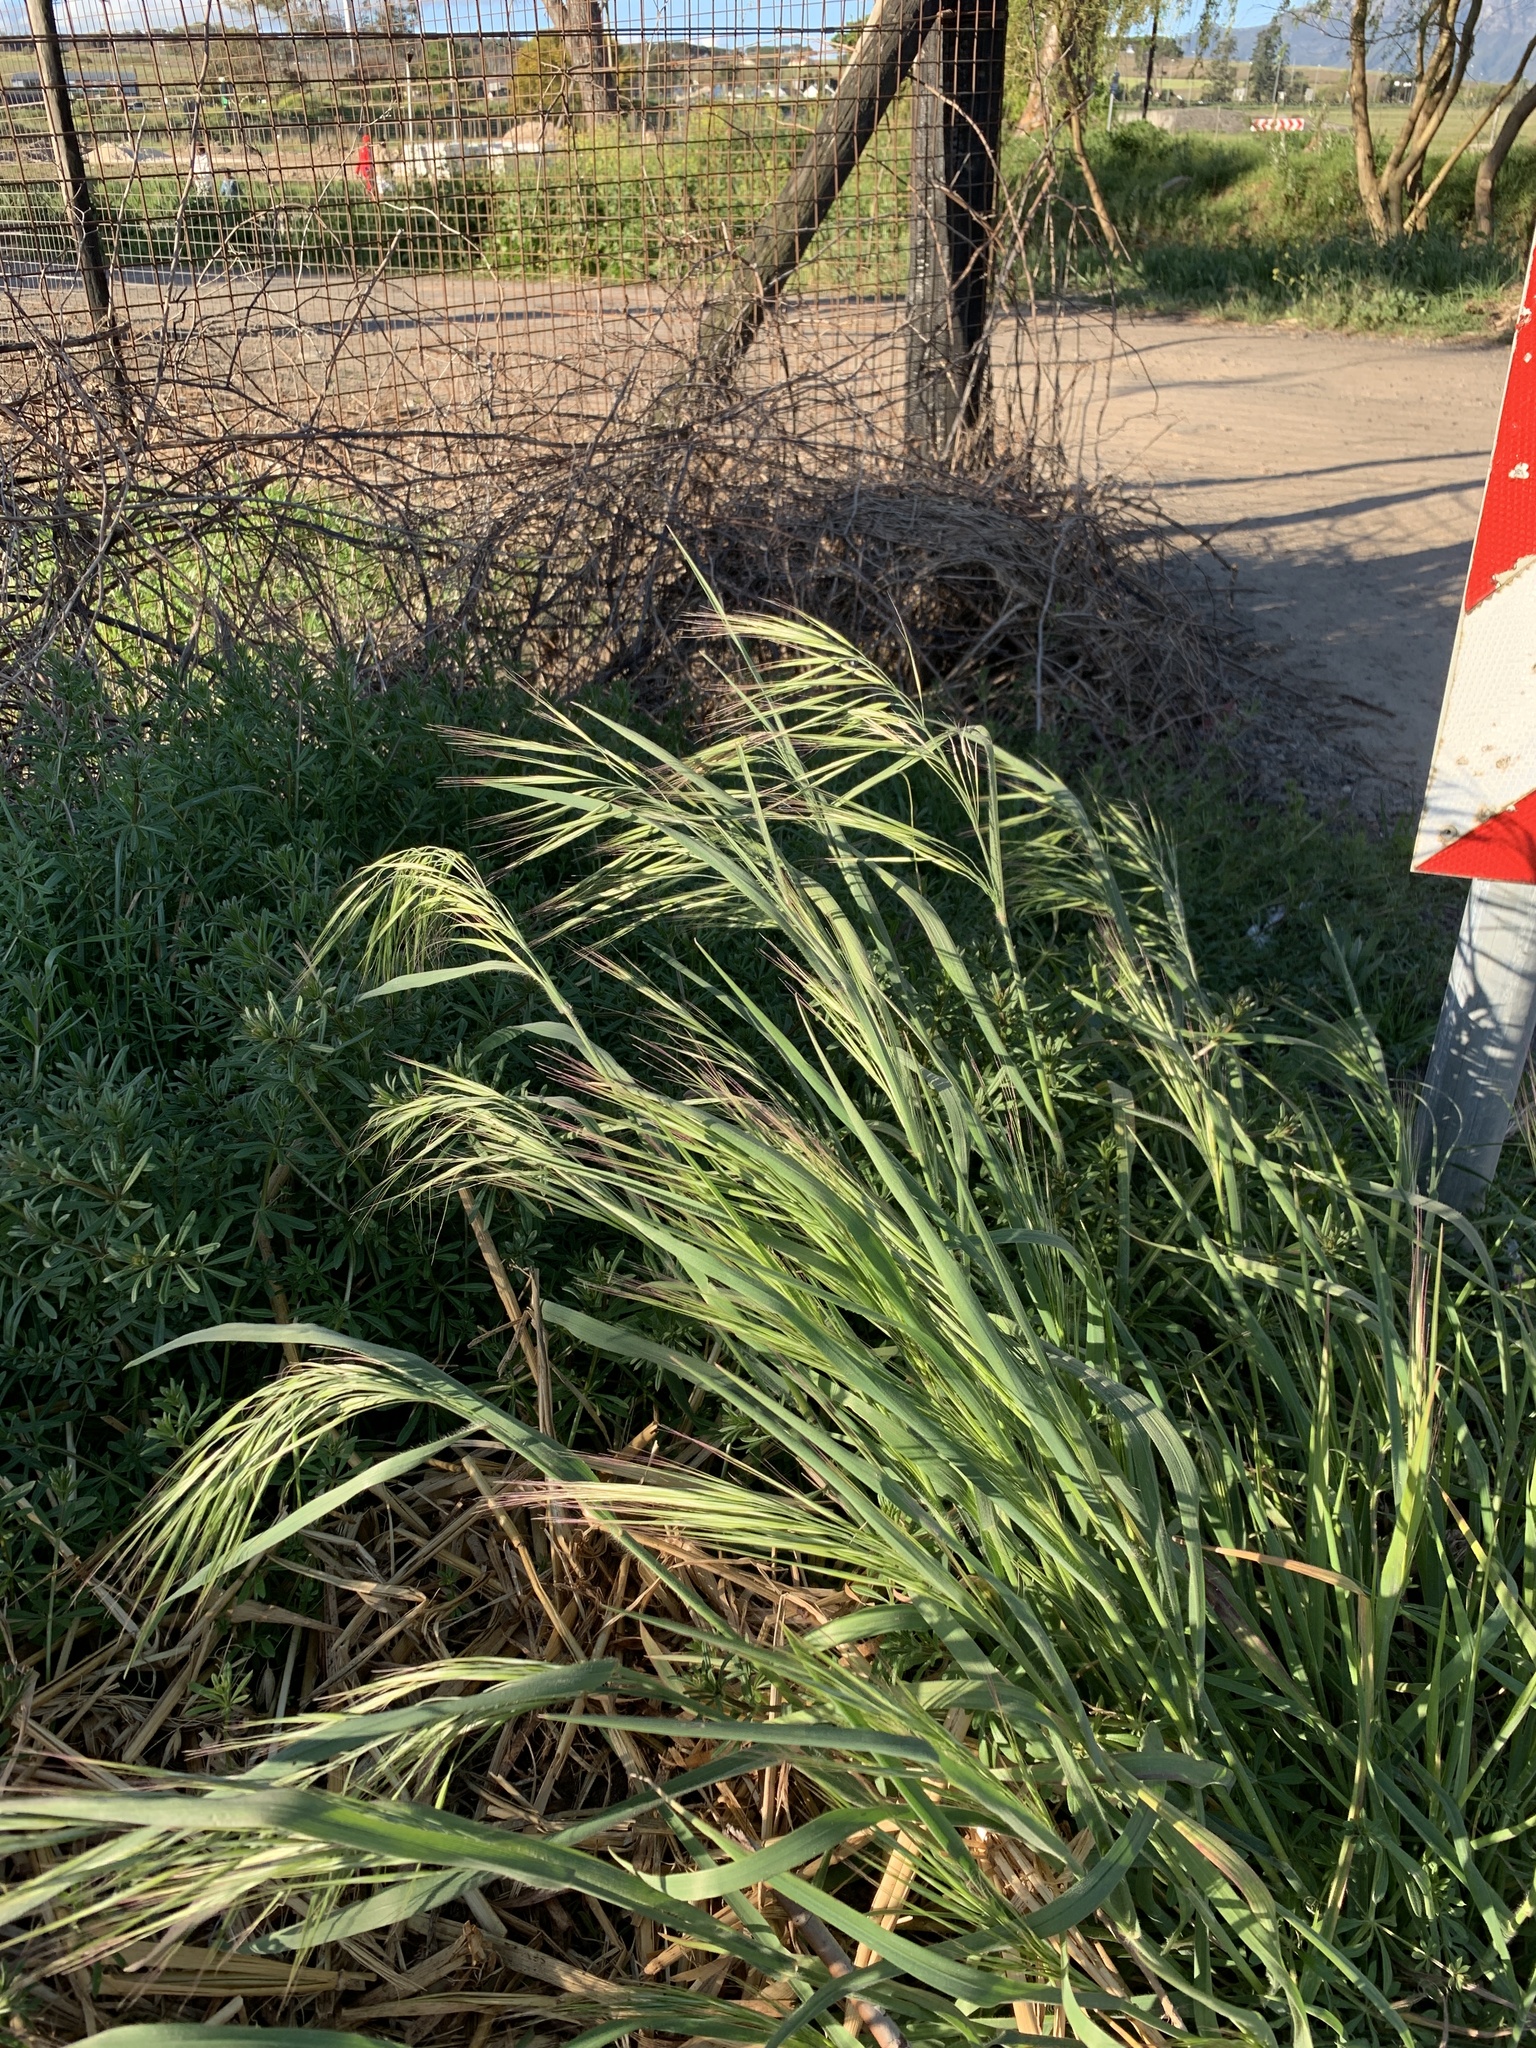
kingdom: Plantae
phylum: Tracheophyta
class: Liliopsida
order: Poales
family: Poaceae
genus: Bromus
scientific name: Bromus diandrus
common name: Ripgut brome
